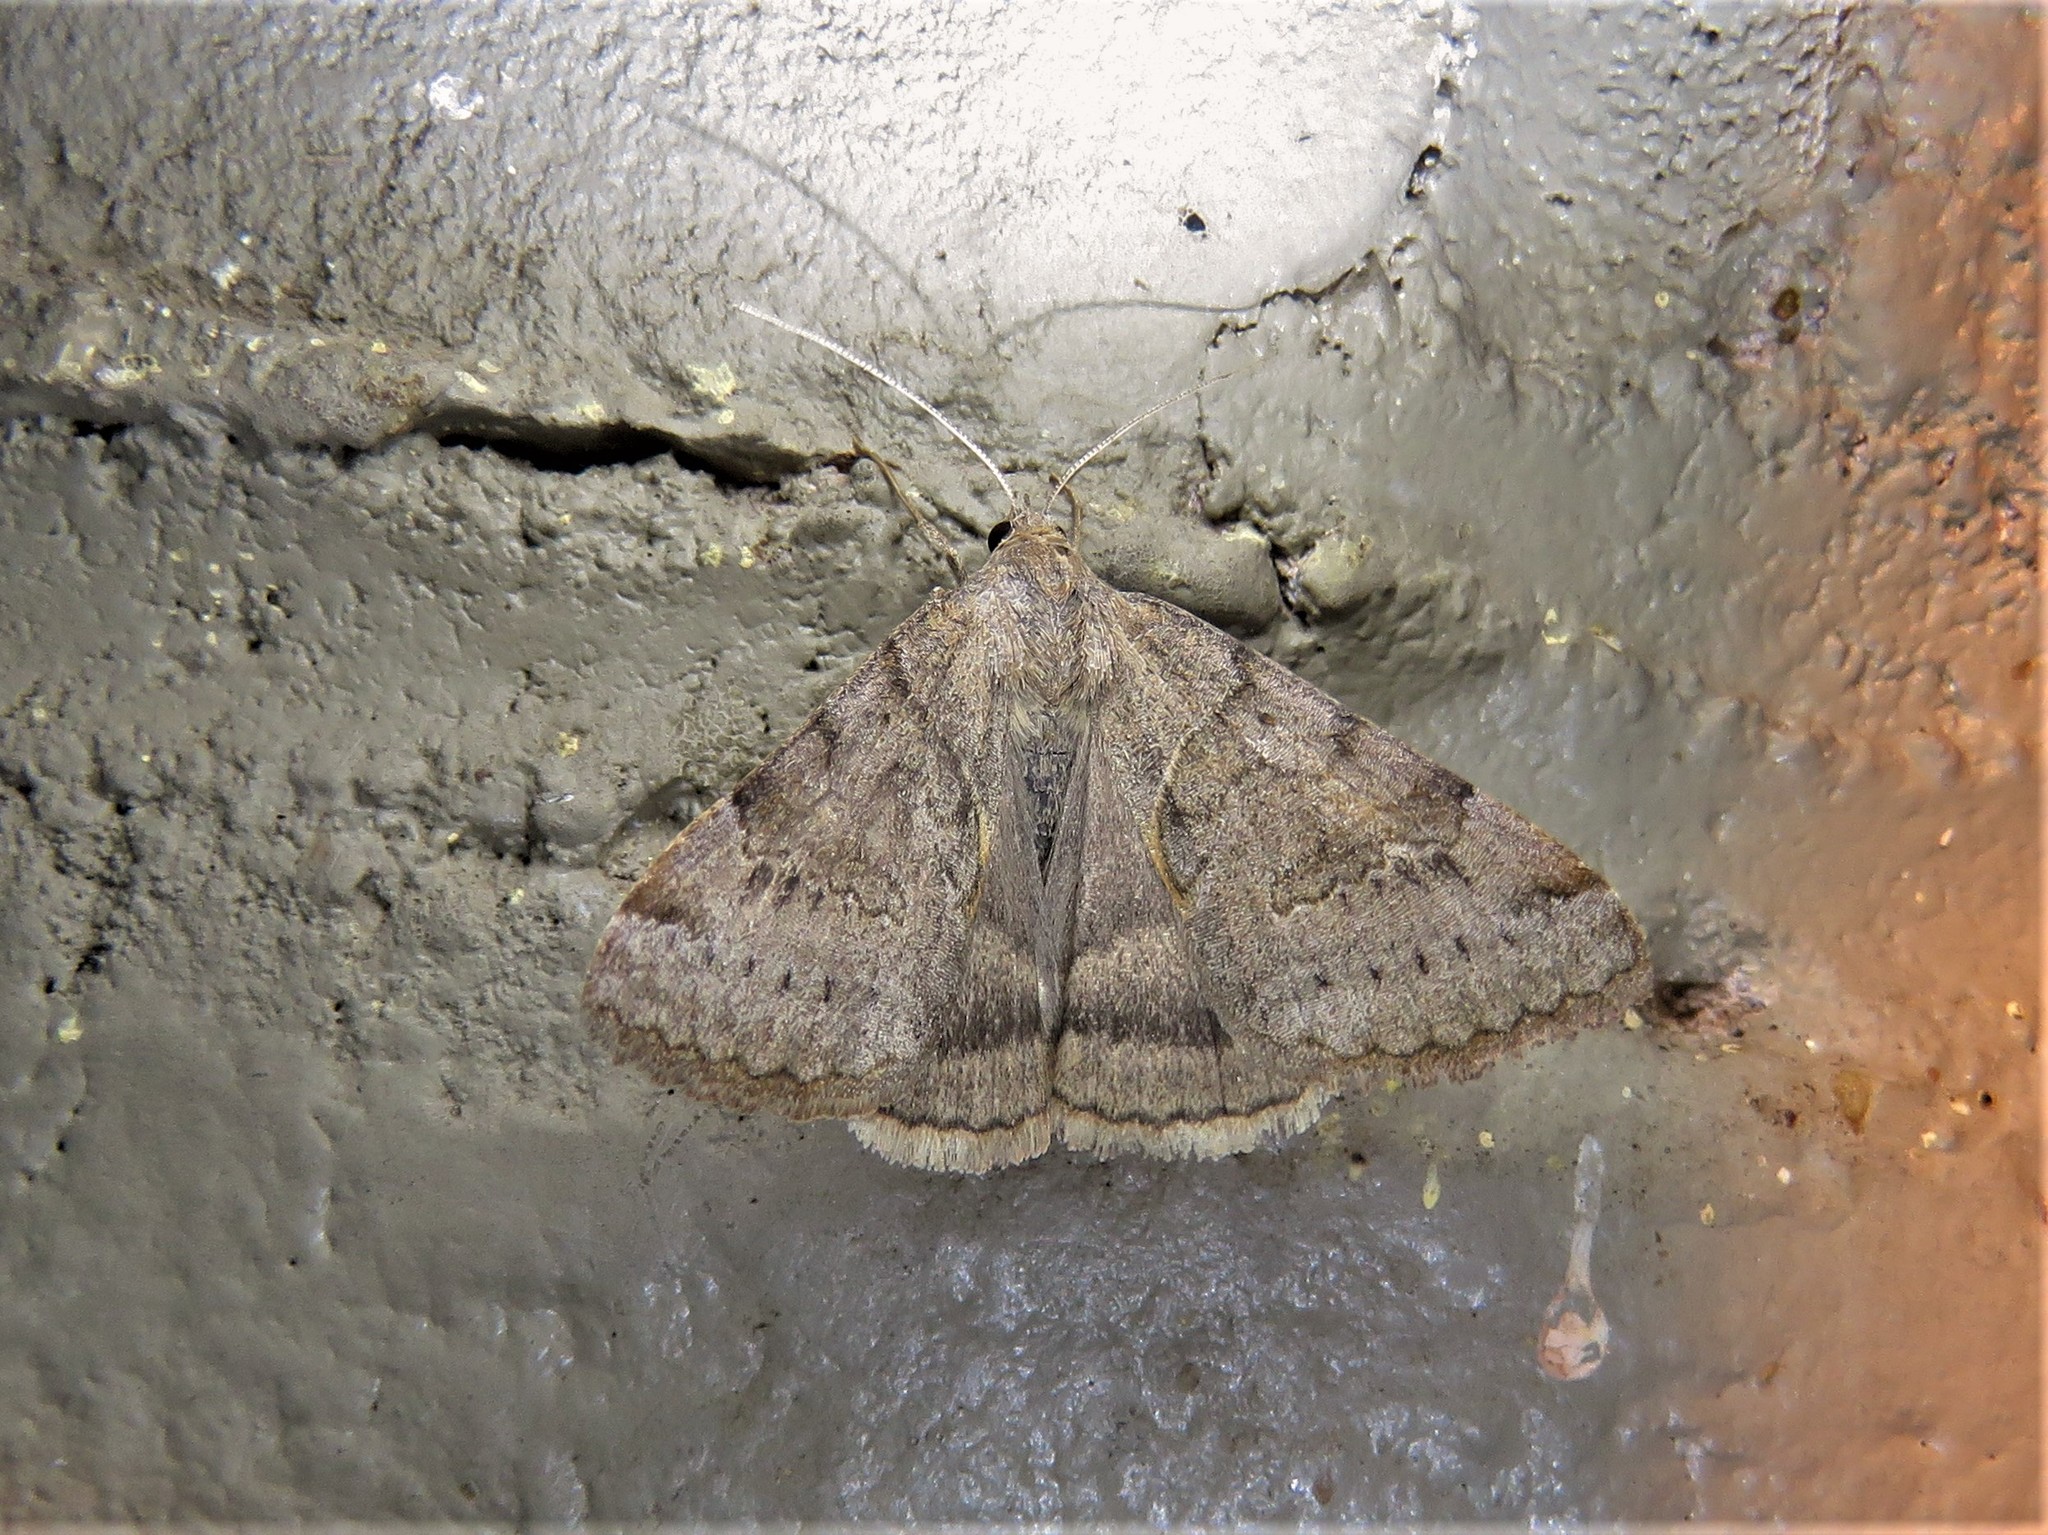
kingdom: Animalia
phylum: Arthropoda
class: Insecta
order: Lepidoptera
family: Erebidae
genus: Caenurgina
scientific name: Caenurgina erechtea
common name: Forage looper moth
